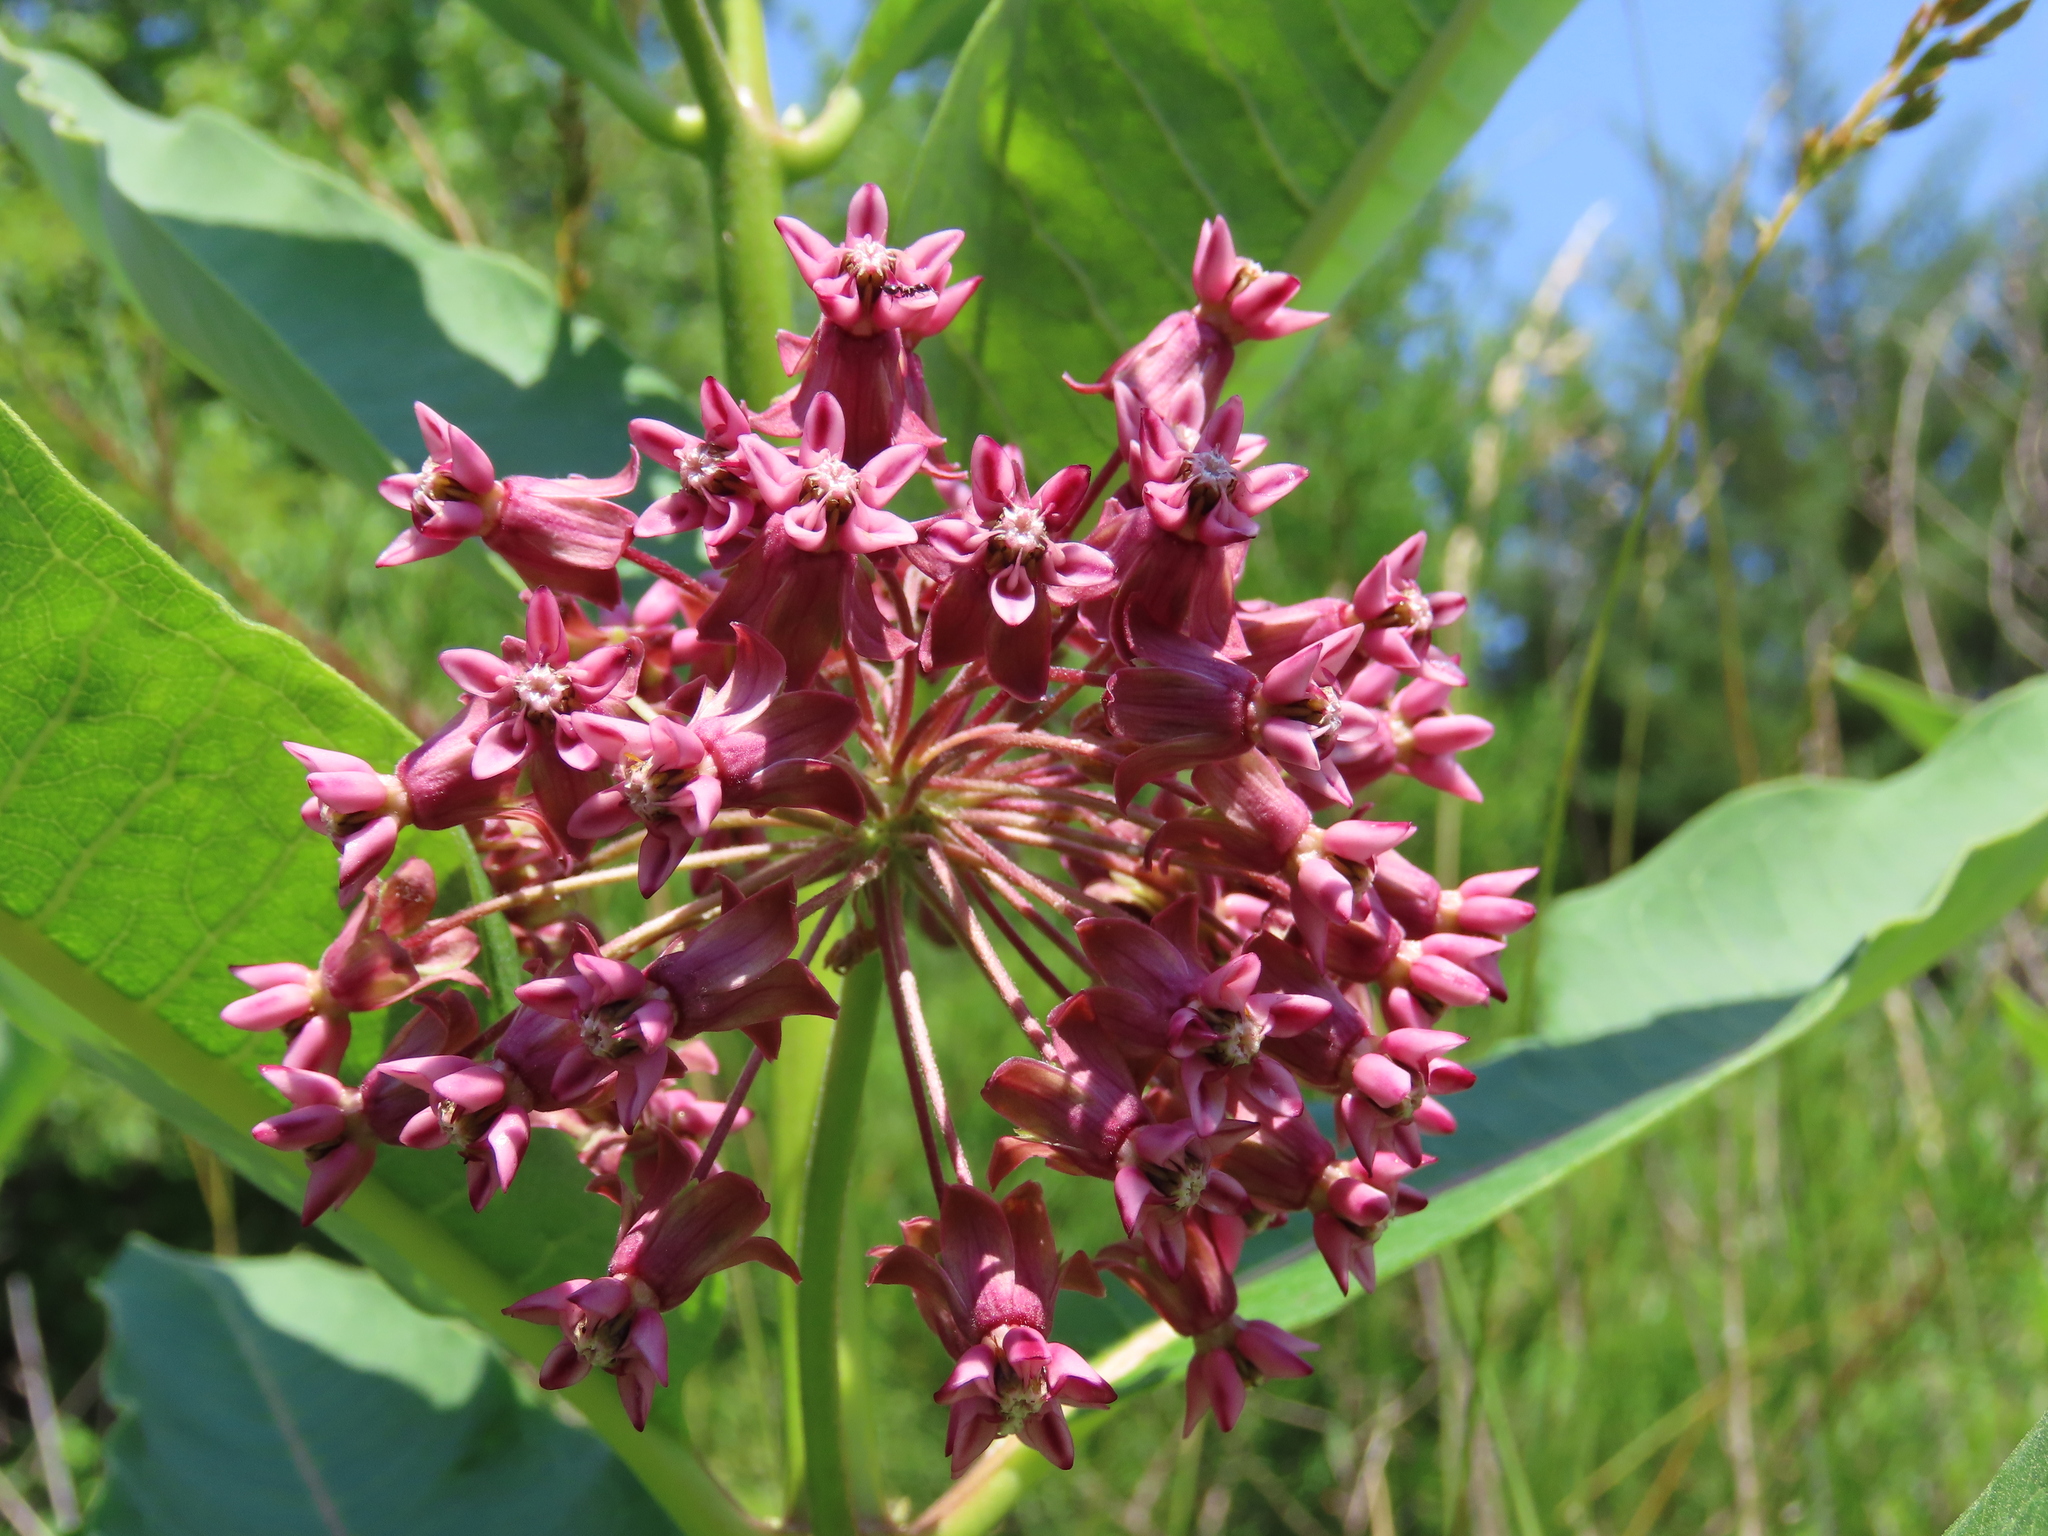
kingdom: Plantae
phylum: Tracheophyta
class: Magnoliopsida
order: Gentianales
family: Apocynaceae
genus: Asclepias
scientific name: Asclepias syriaca
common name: Common milkweed
